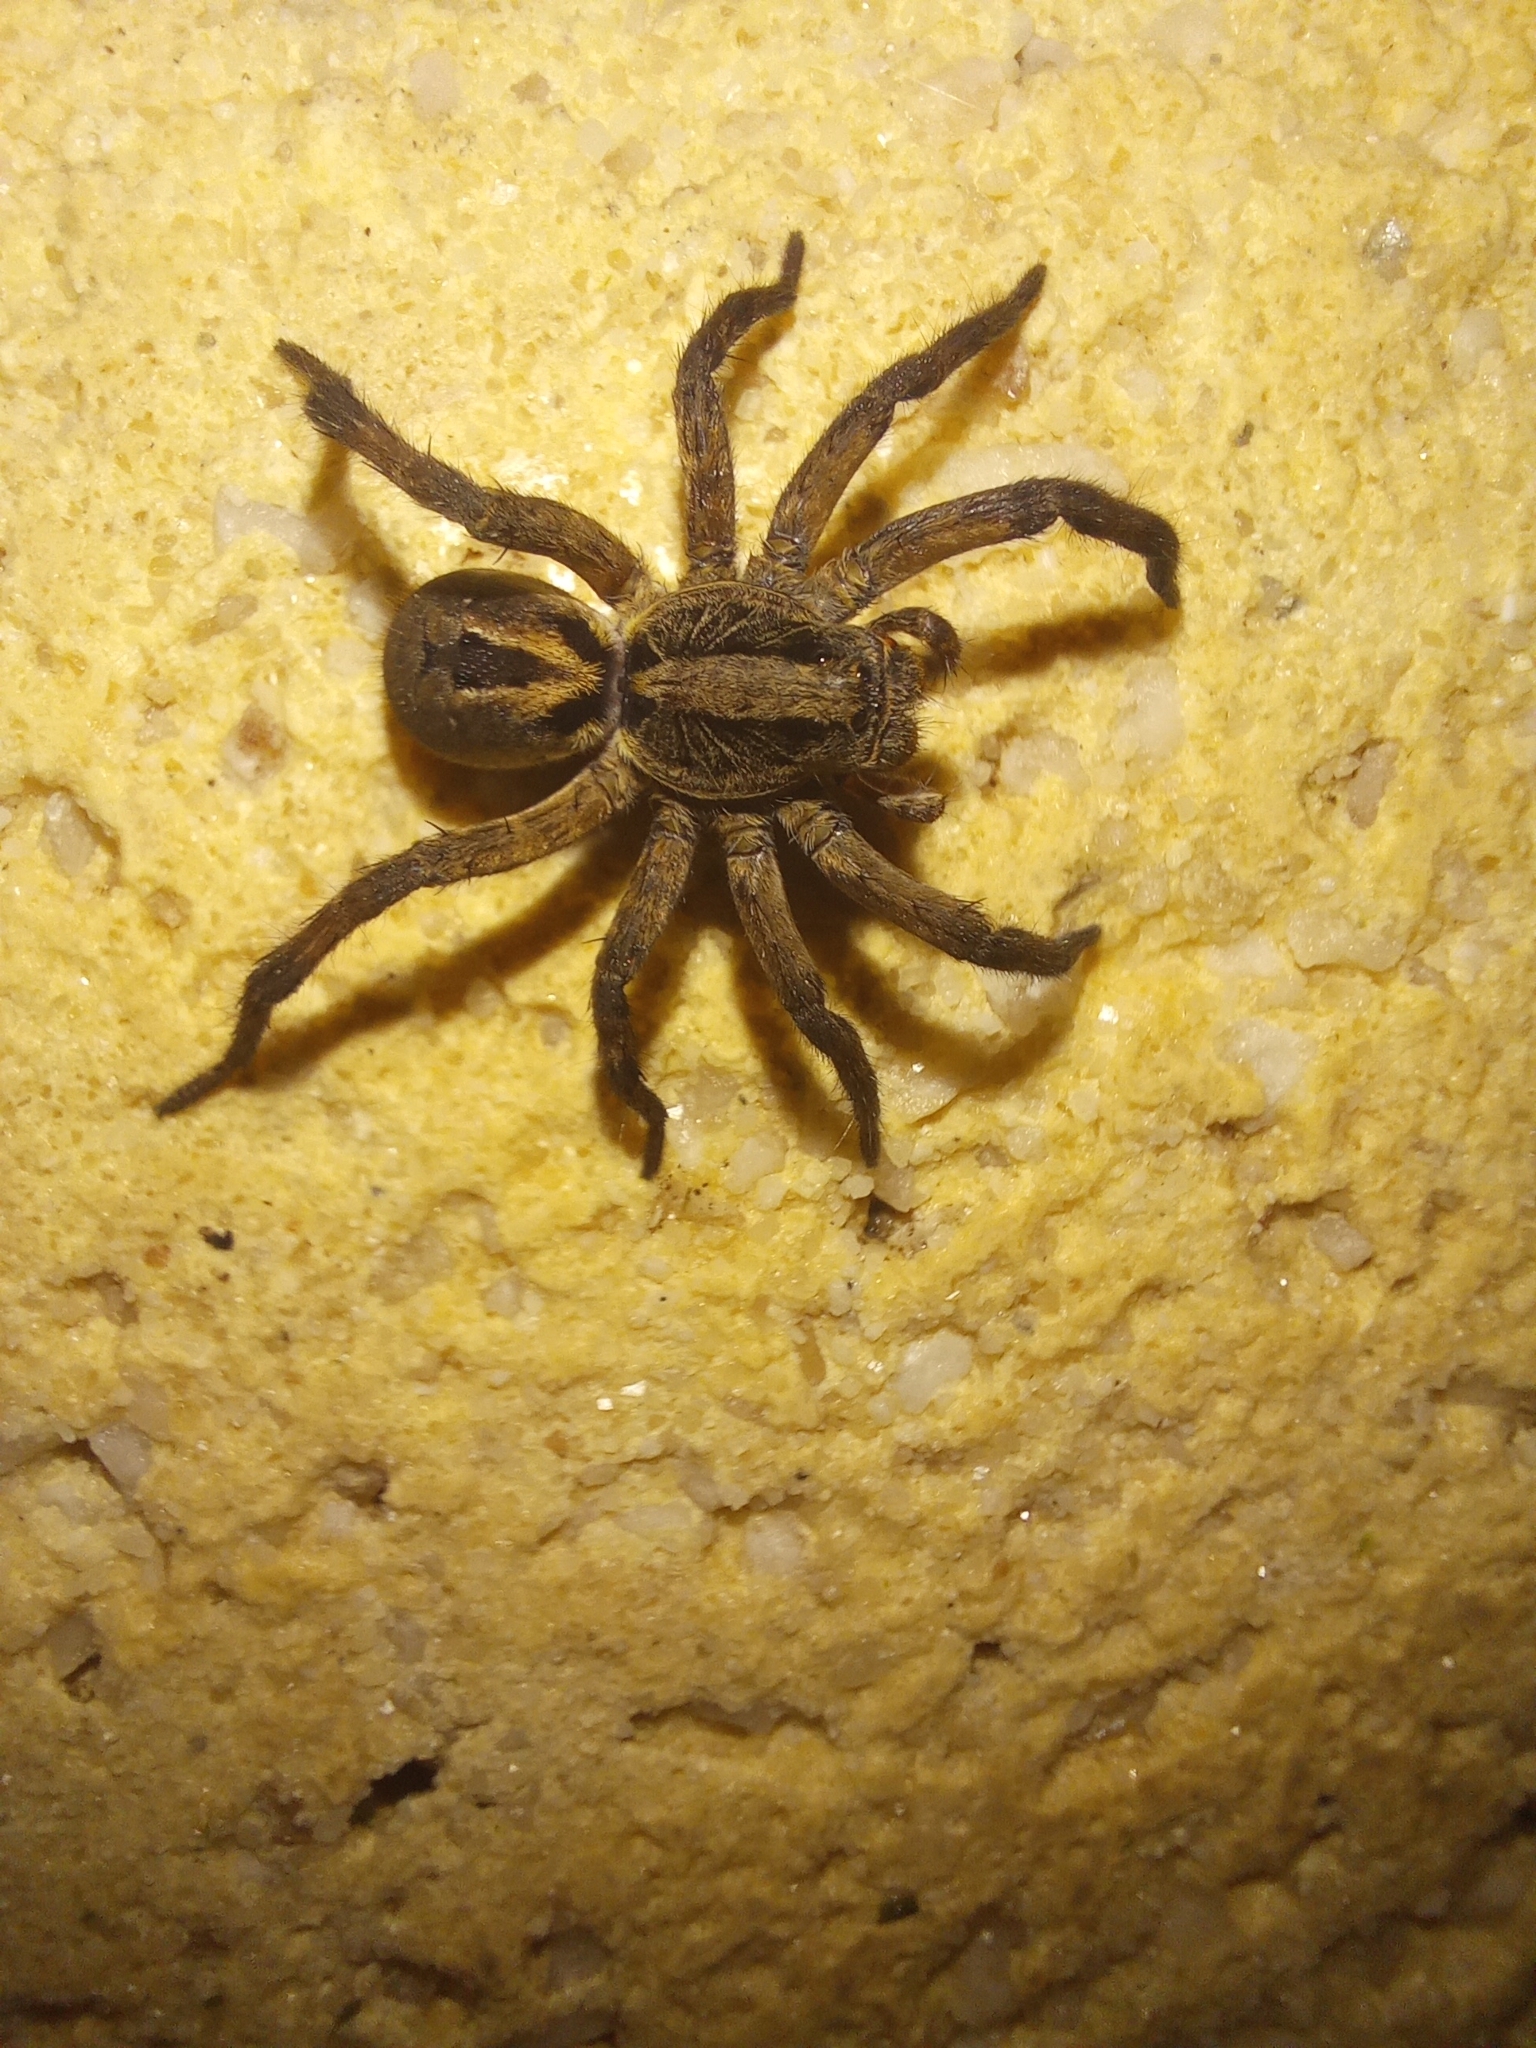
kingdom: Animalia
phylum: Arthropoda
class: Arachnida
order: Araneae
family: Lycosidae
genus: Lycosa
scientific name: Lycosa erythrognatha
